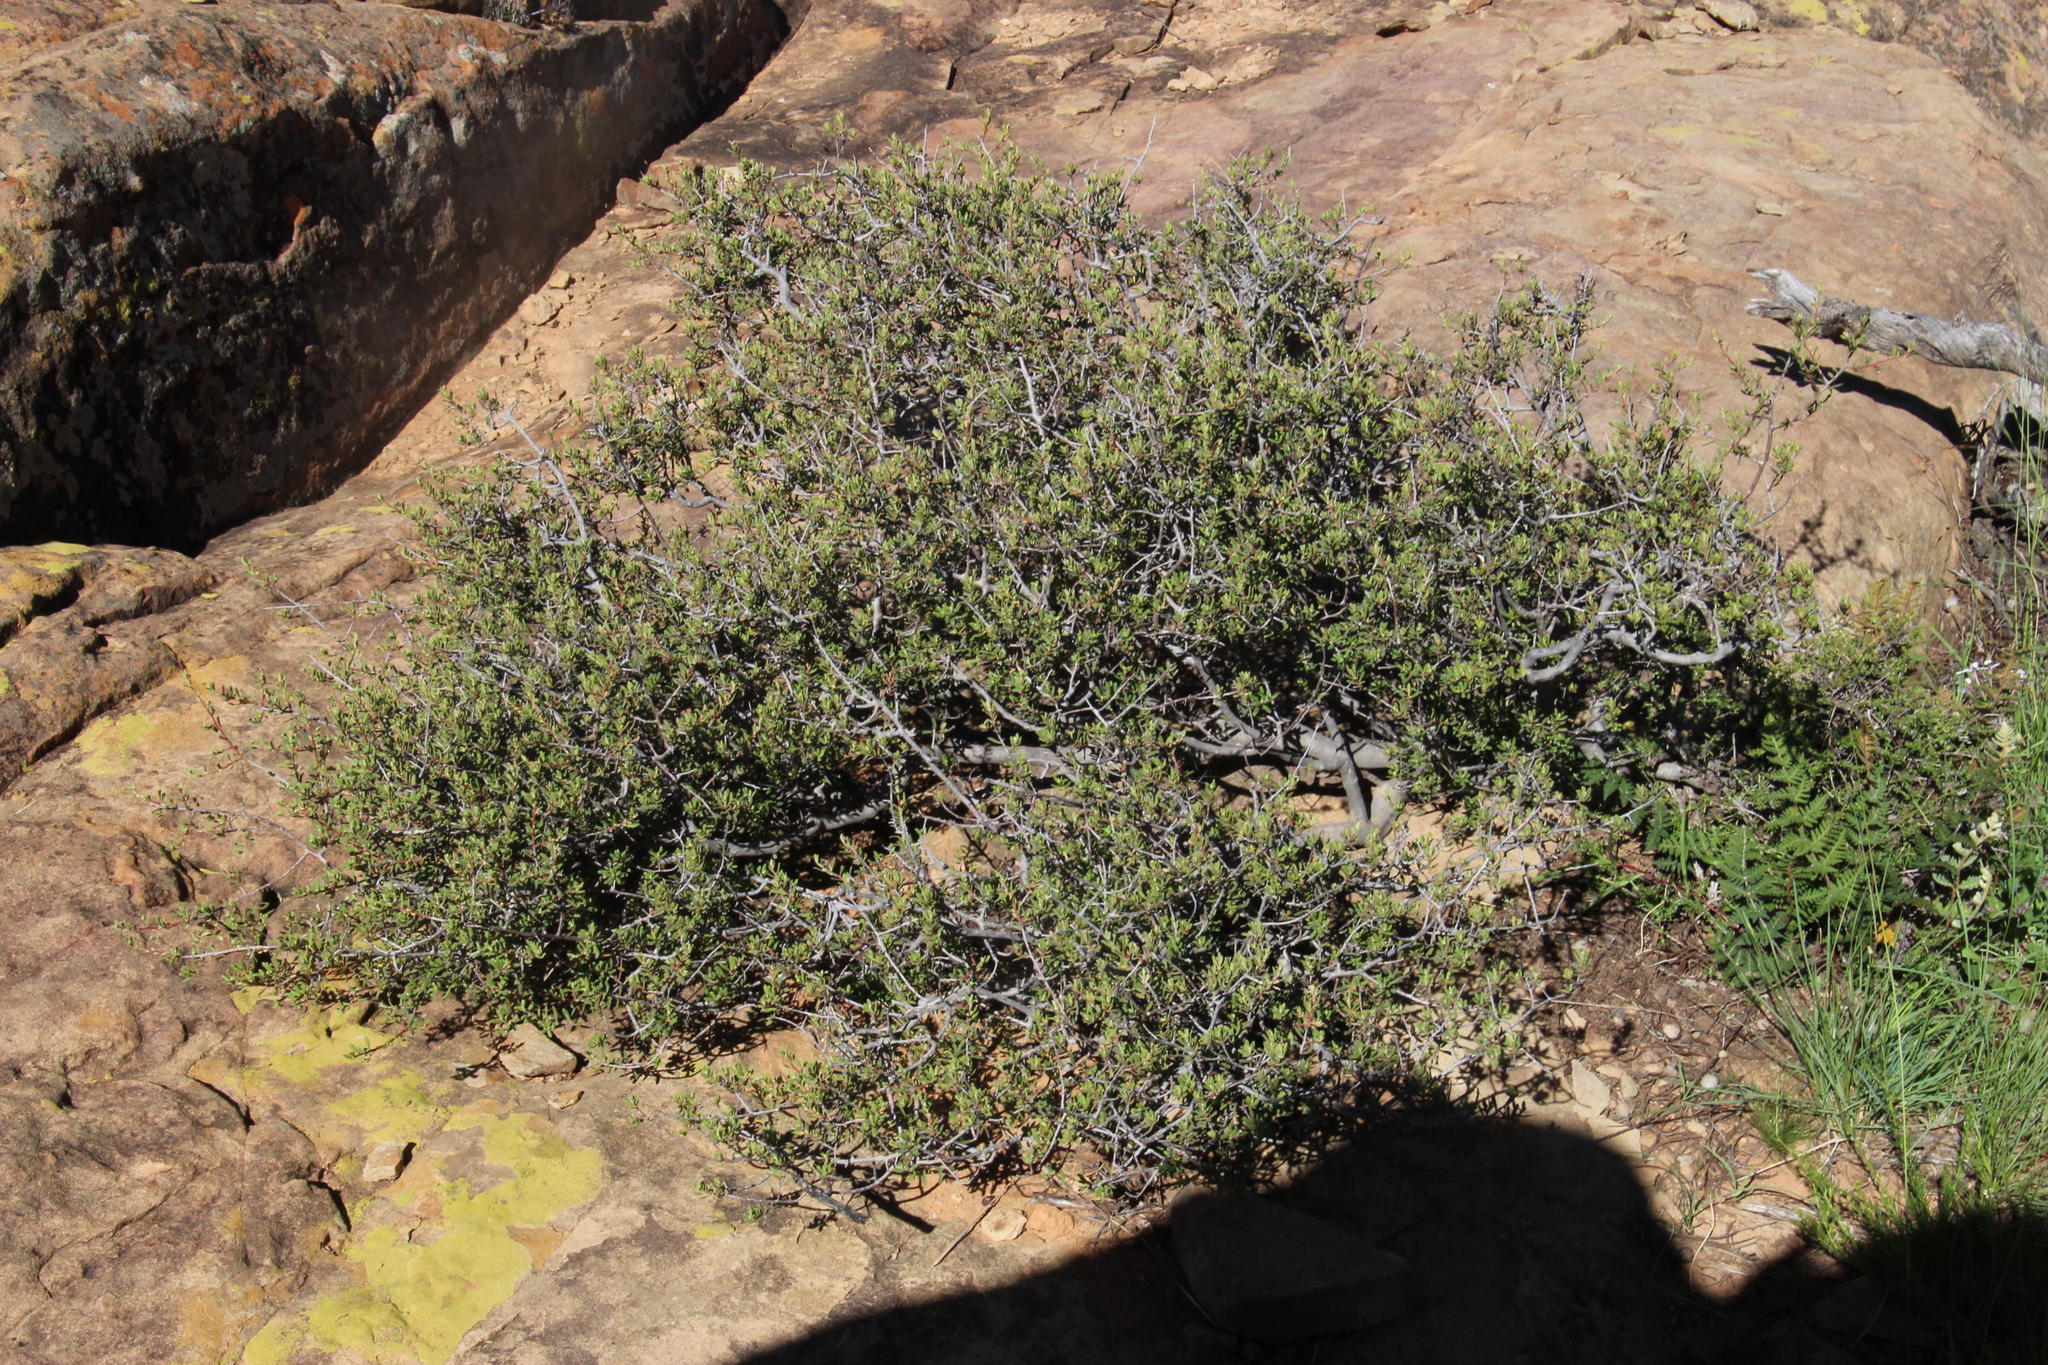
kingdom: Plantae
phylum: Tracheophyta
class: Magnoliopsida
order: Ericales
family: Ebenaceae
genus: Diospyros
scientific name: Diospyros pubescens
